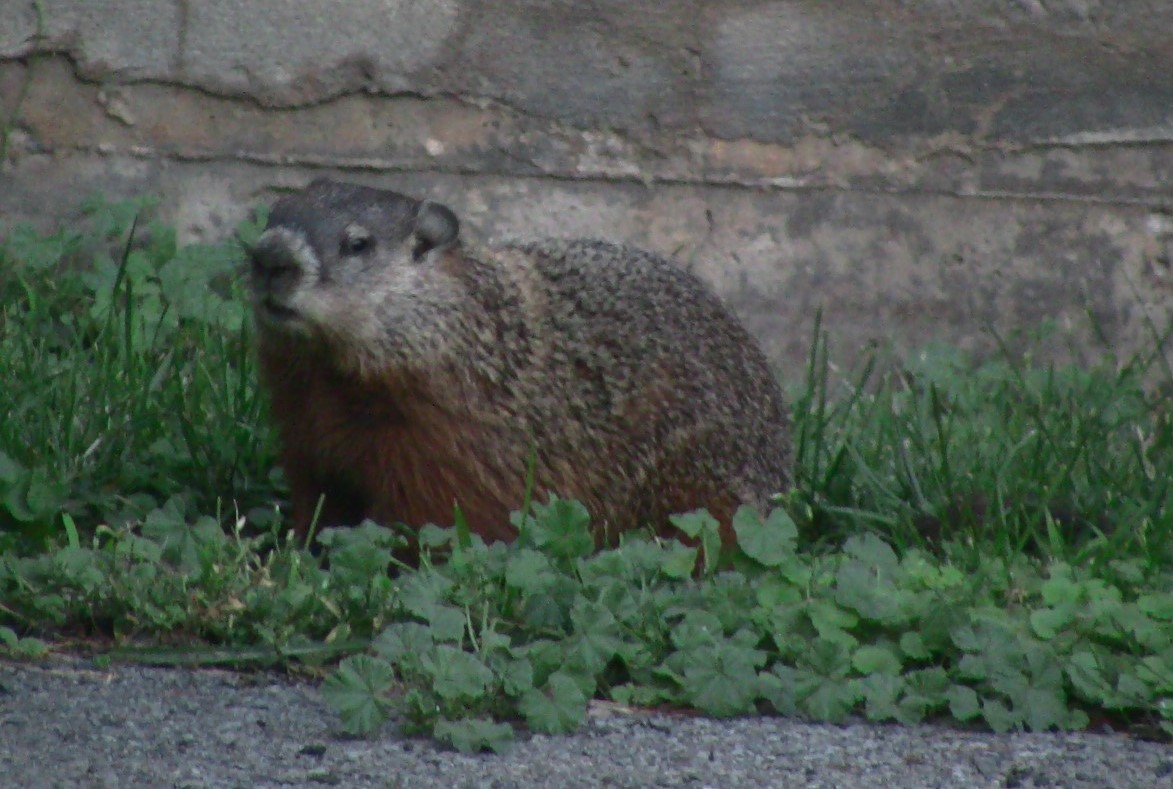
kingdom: Animalia
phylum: Chordata
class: Mammalia
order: Rodentia
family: Sciuridae
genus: Marmota
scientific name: Marmota monax
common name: Groundhog
